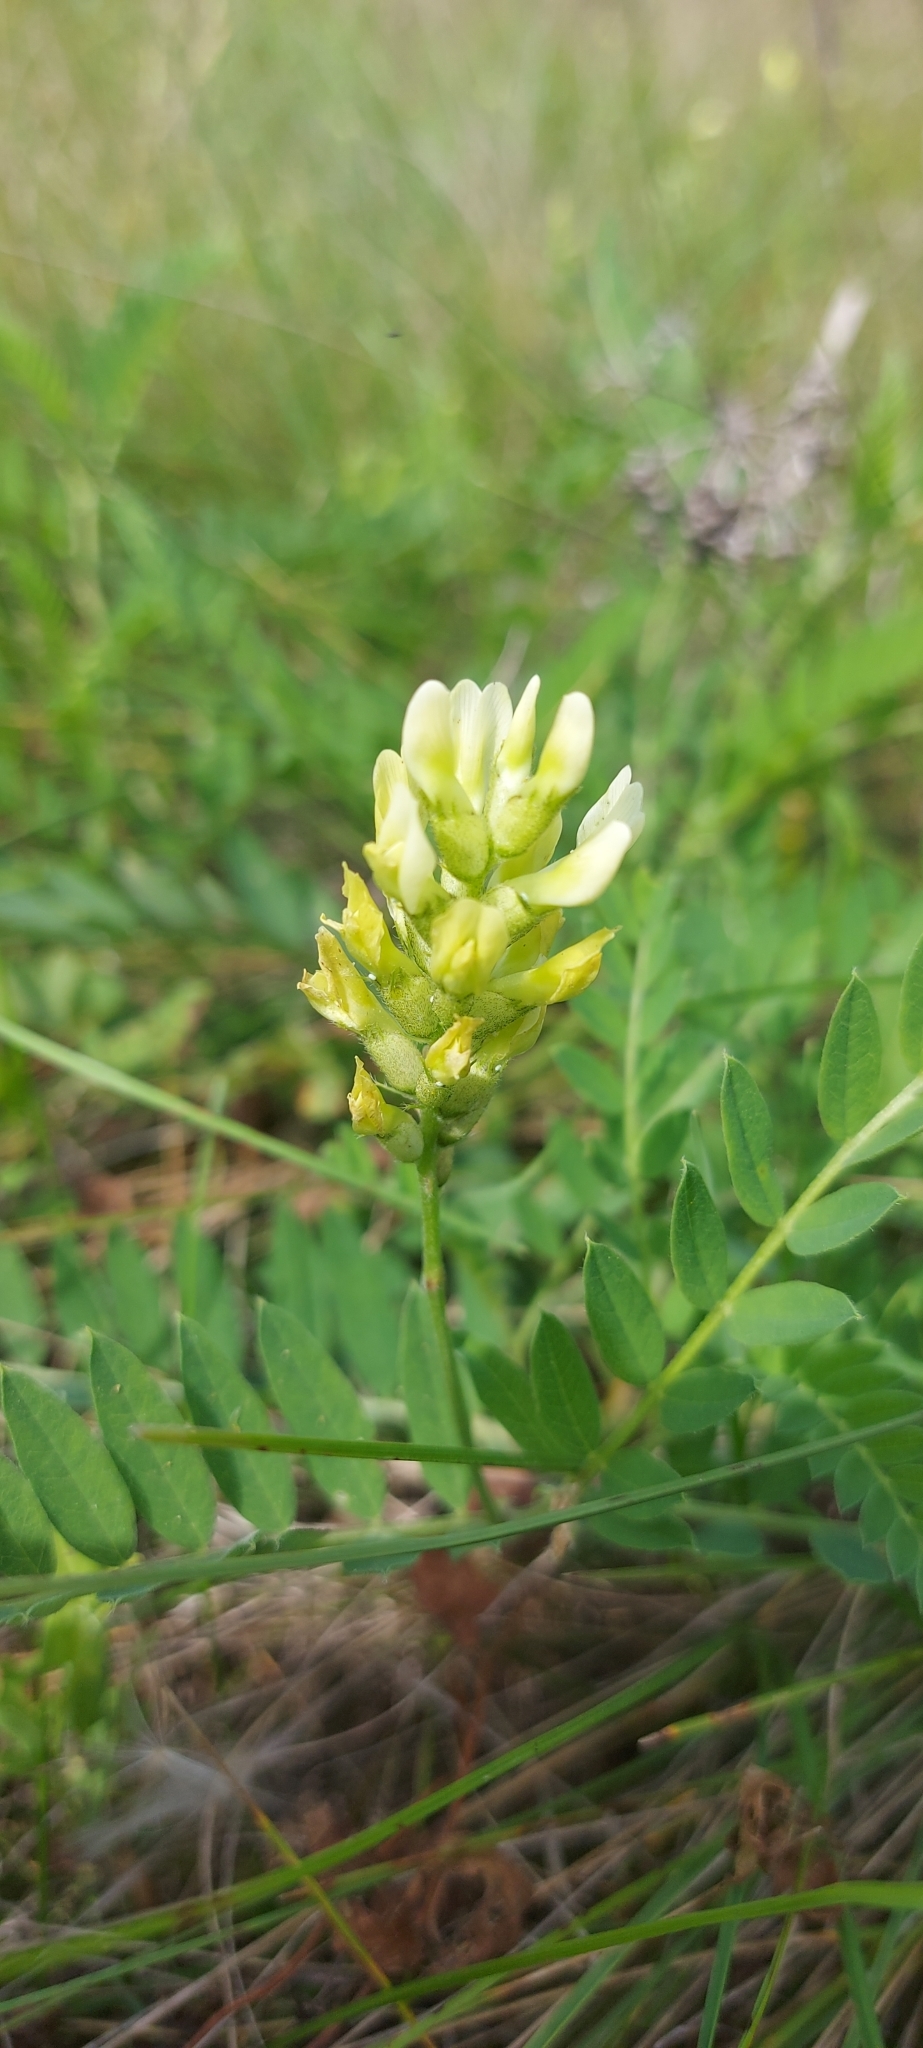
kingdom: Plantae
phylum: Tracheophyta
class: Magnoliopsida
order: Fabales
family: Fabaceae
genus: Astragalus
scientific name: Astragalus cicer
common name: Chick-pea milk-vetch
